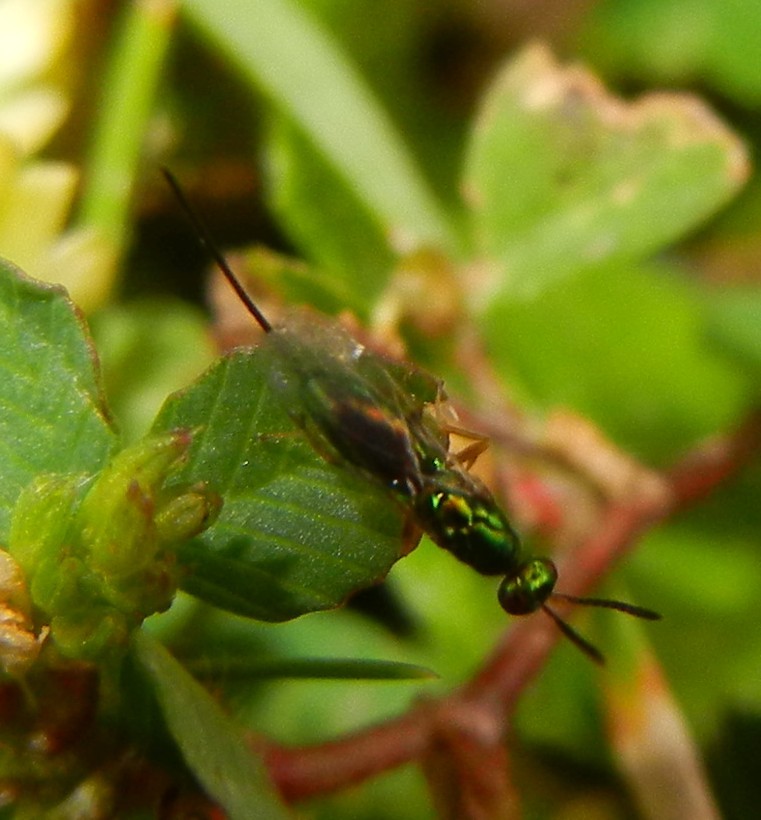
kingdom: Animalia
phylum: Arthropoda
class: Insecta
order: Hymenoptera
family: Torymidae
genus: Torymus
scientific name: Torymus bedeguaris
